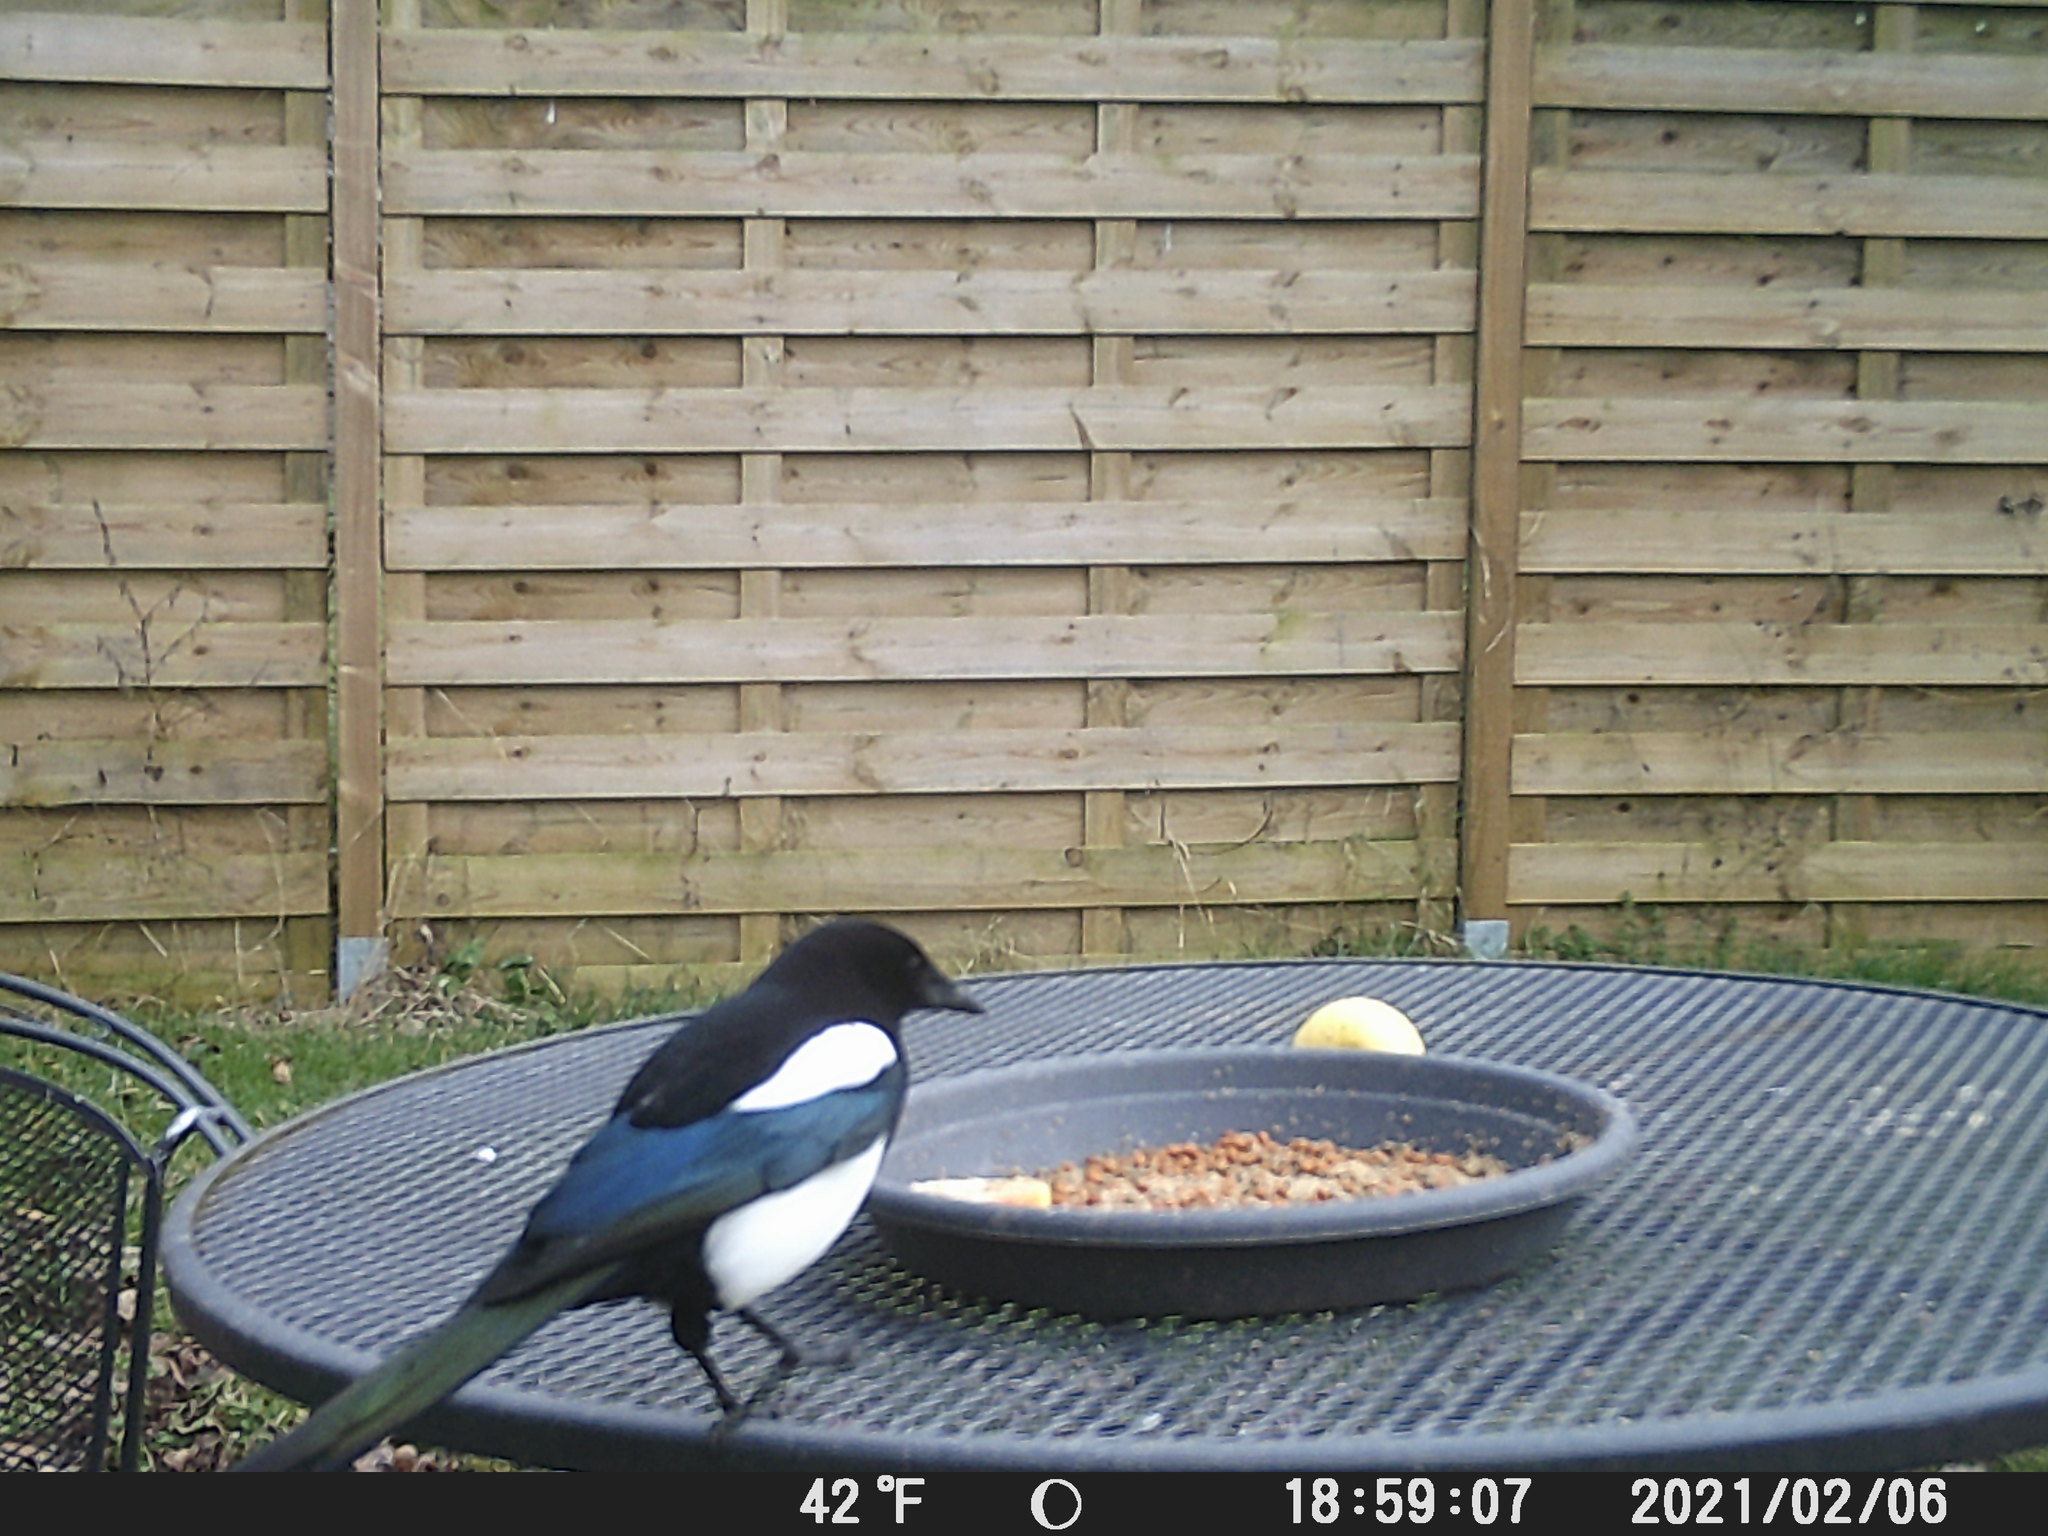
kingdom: Animalia
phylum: Chordata
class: Aves
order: Passeriformes
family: Corvidae
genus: Pica
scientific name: Pica pica
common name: Eurasian magpie
